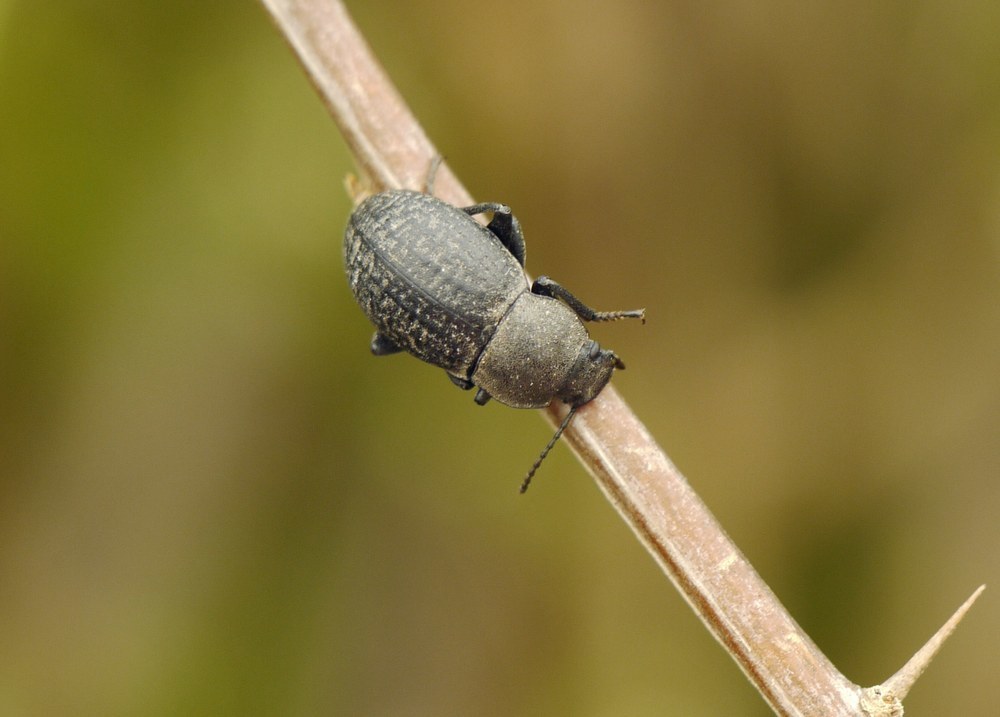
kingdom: Animalia
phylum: Arthropoda
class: Insecta
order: Coleoptera
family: Tenebrionidae
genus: Euboeus
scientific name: Euboeus
